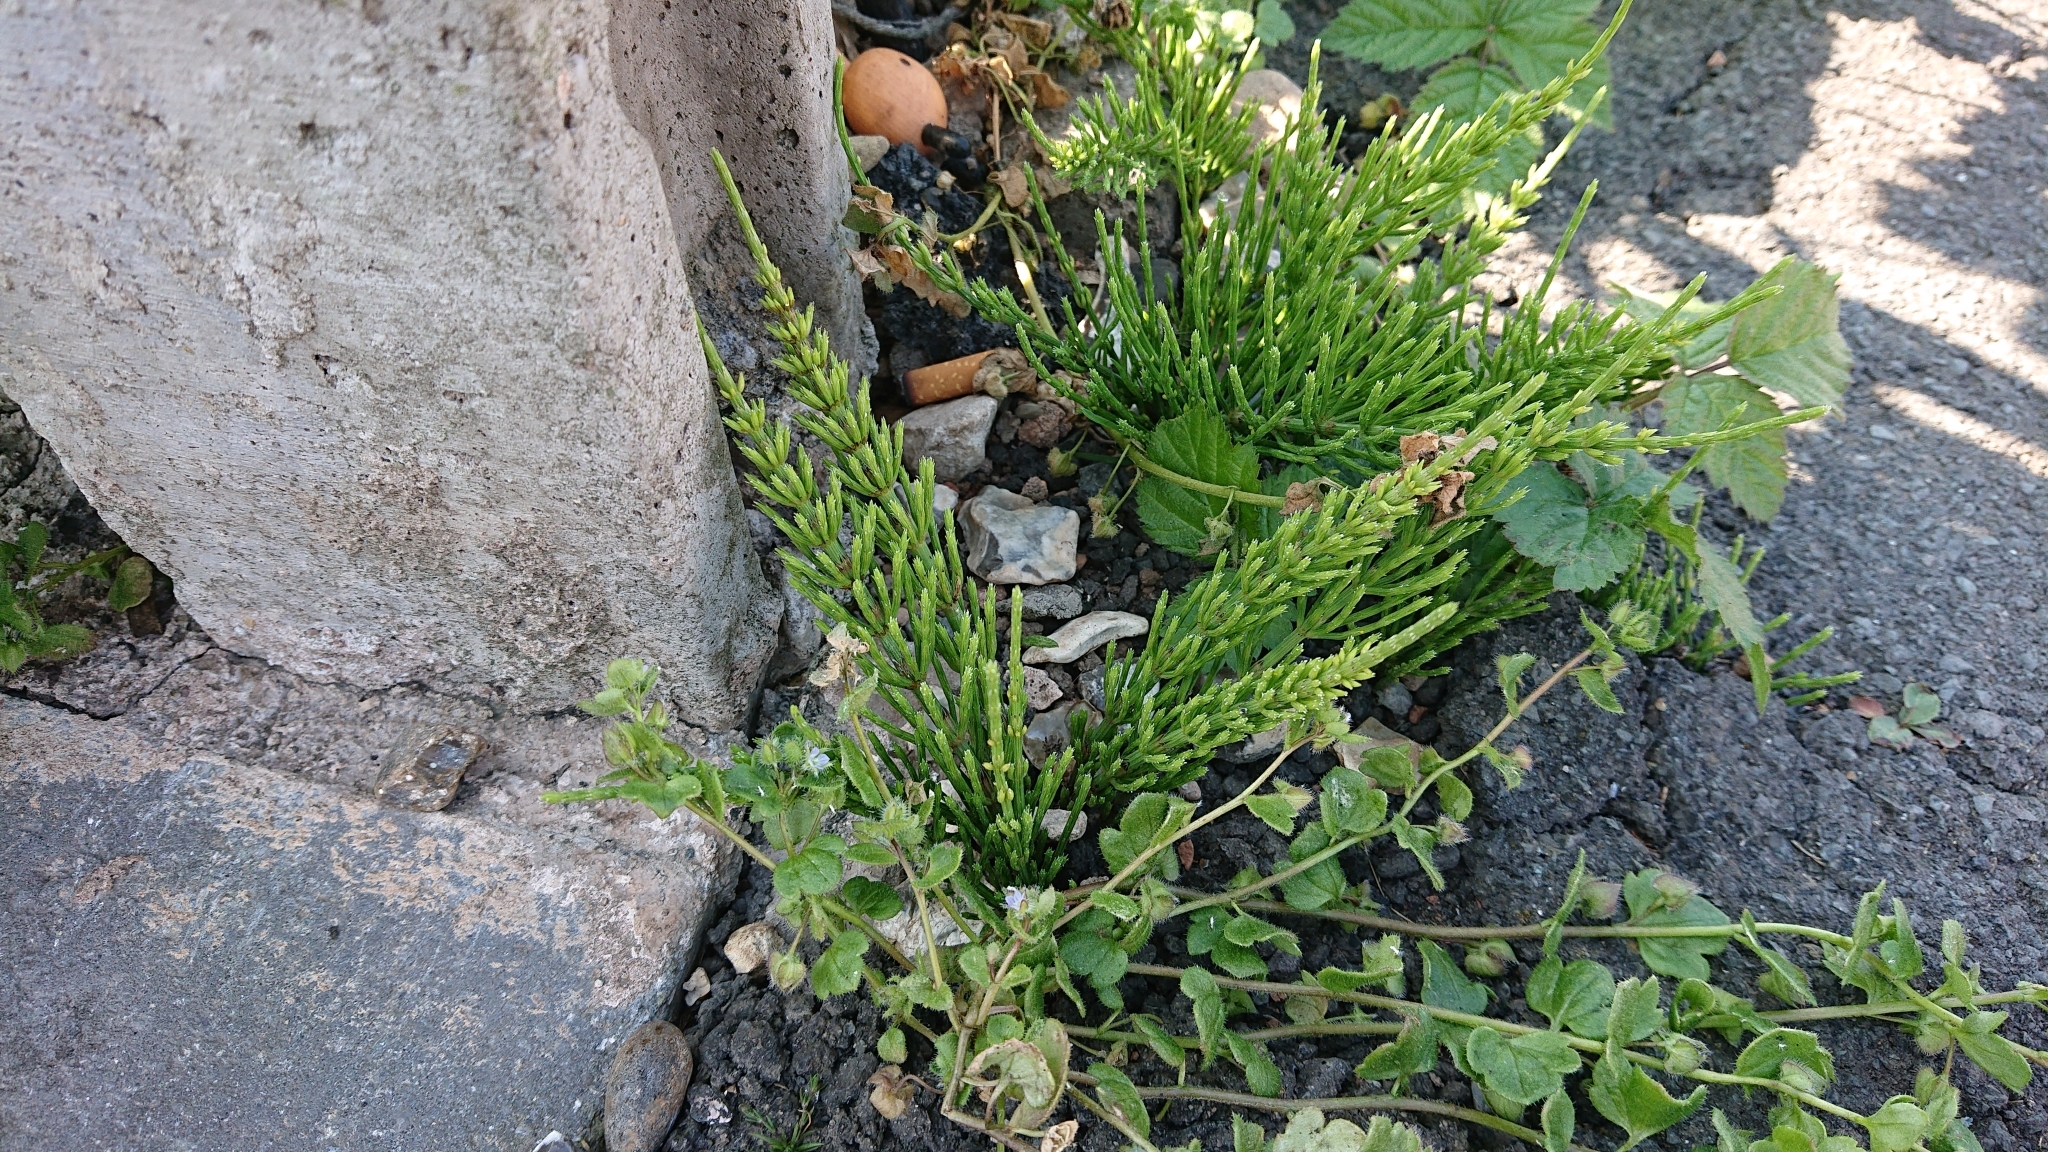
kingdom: Plantae
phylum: Tracheophyta
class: Polypodiopsida
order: Equisetales
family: Equisetaceae
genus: Equisetum
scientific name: Equisetum arvense
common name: Field horsetail
